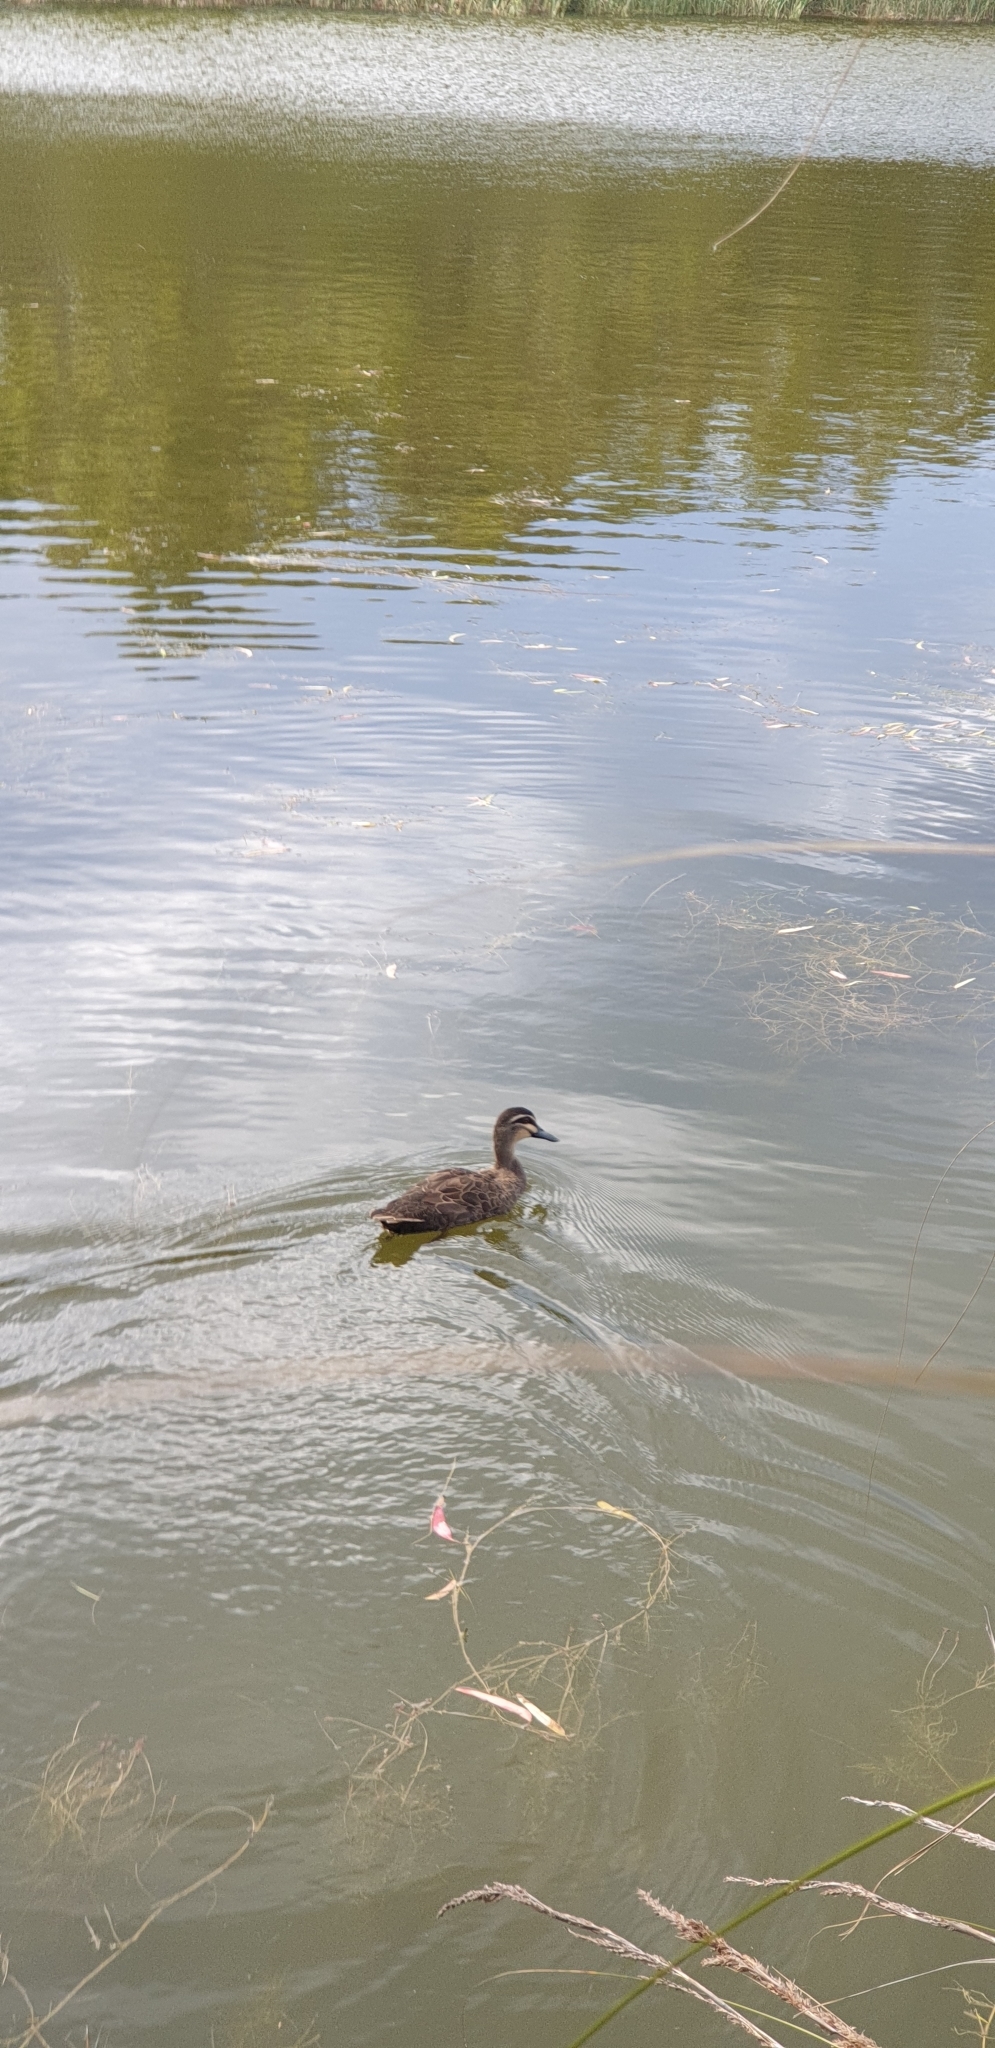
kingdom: Animalia
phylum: Chordata
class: Aves
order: Anseriformes
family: Anatidae
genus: Anas
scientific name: Anas superciliosa
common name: Pacific black duck
